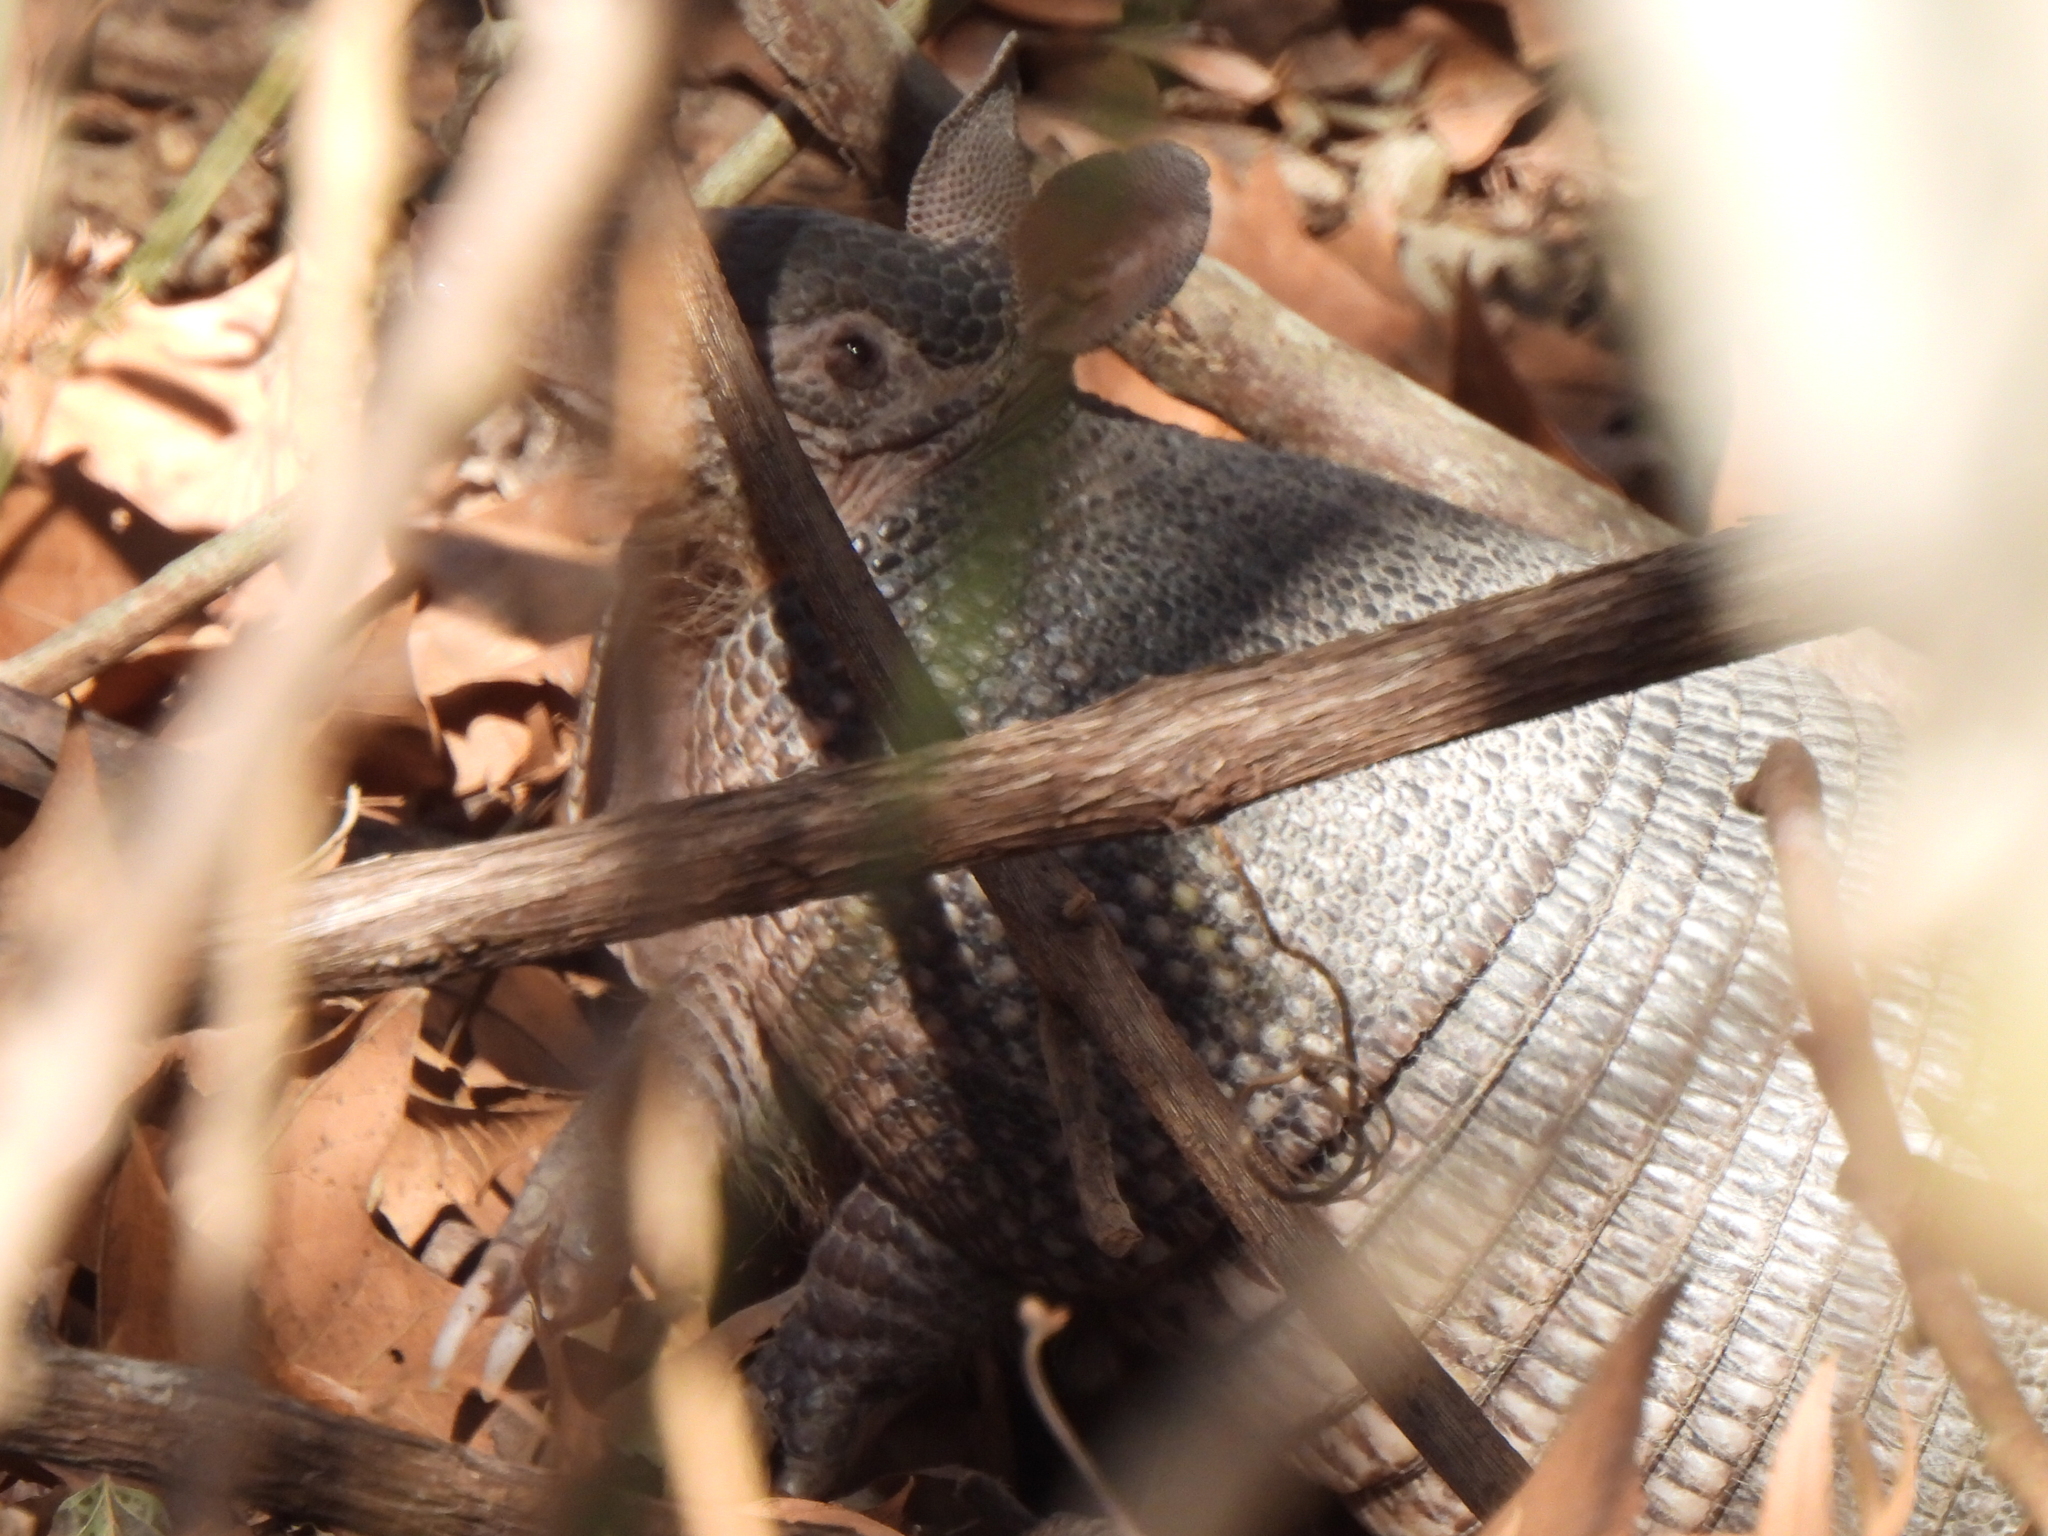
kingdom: Animalia
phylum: Chordata
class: Mammalia
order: Cingulata
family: Dasypodidae
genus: Dasypus
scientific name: Dasypus novemcinctus
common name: Nine-banded armadillo
